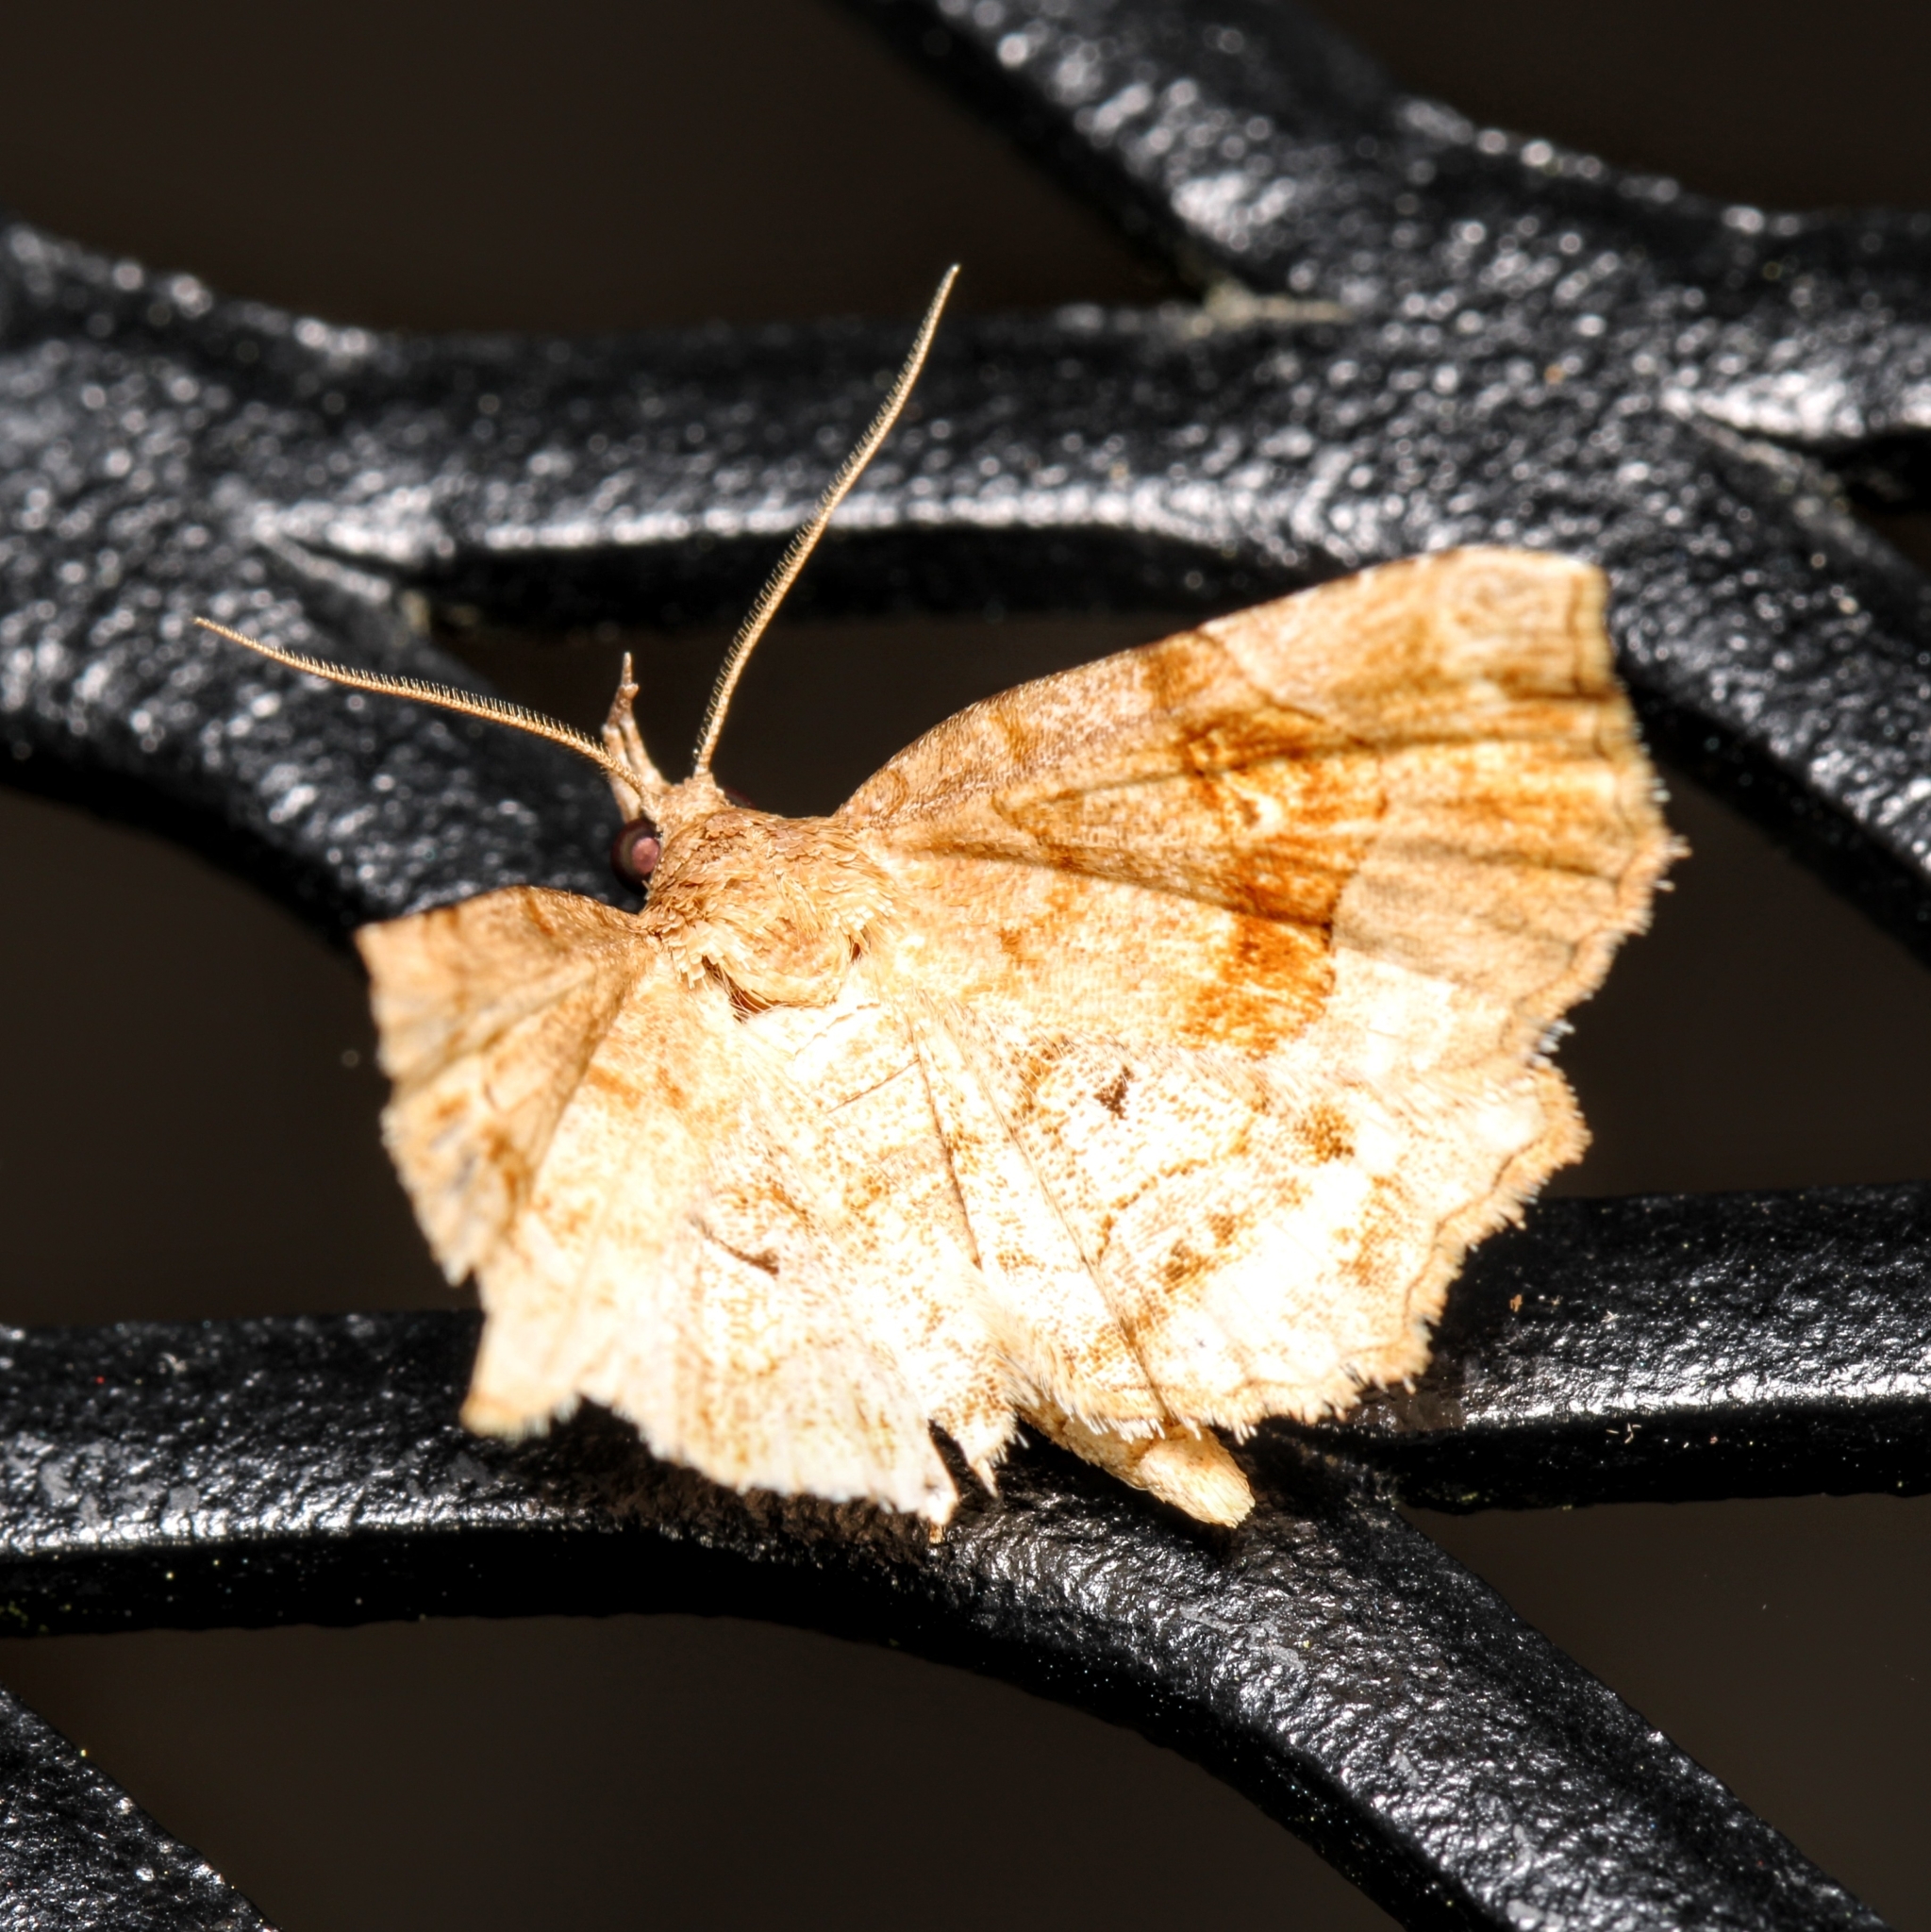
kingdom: Animalia
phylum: Arthropoda
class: Insecta
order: Lepidoptera
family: Erebidae
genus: Pangrapta
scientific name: Pangrapta decoralis
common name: Decorated owlet
